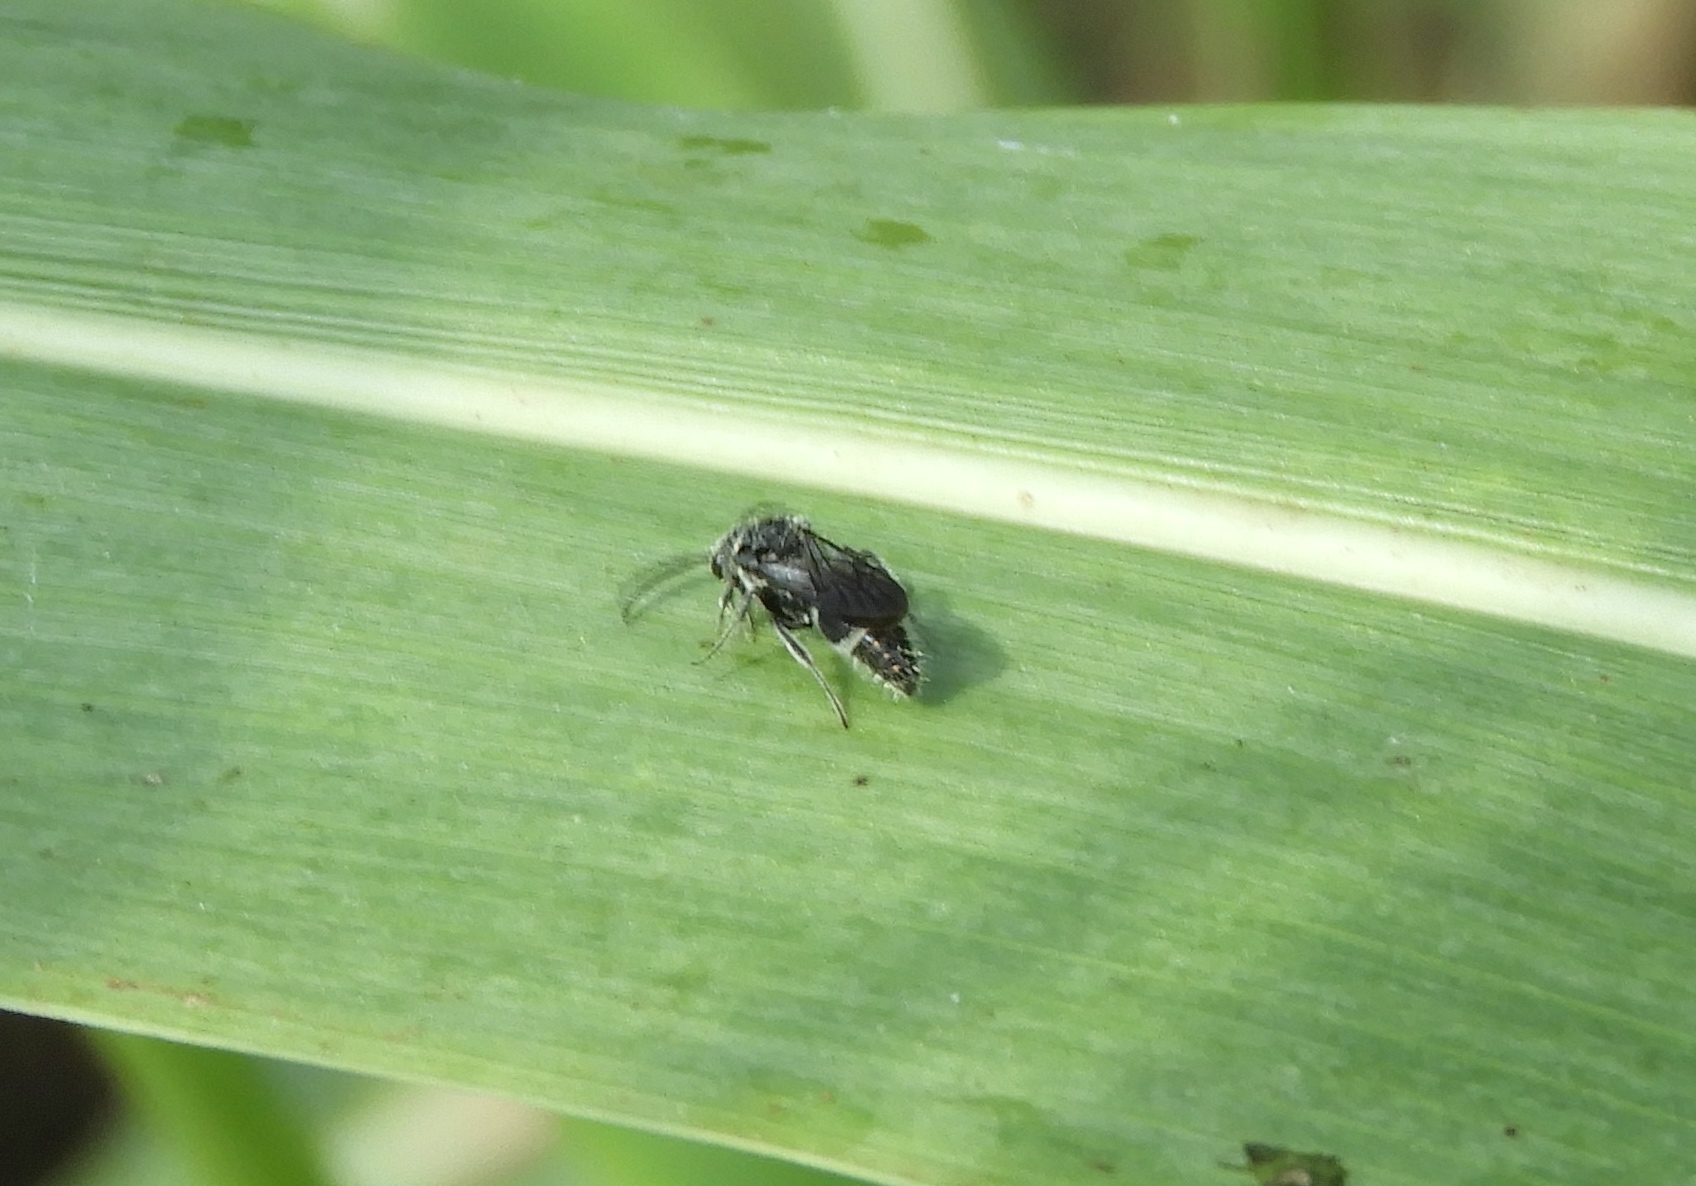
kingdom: Animalia
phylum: Arthropoda
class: Insecta
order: Hymenoptera
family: Mutillidae
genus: Ephuta
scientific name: Ephuta
